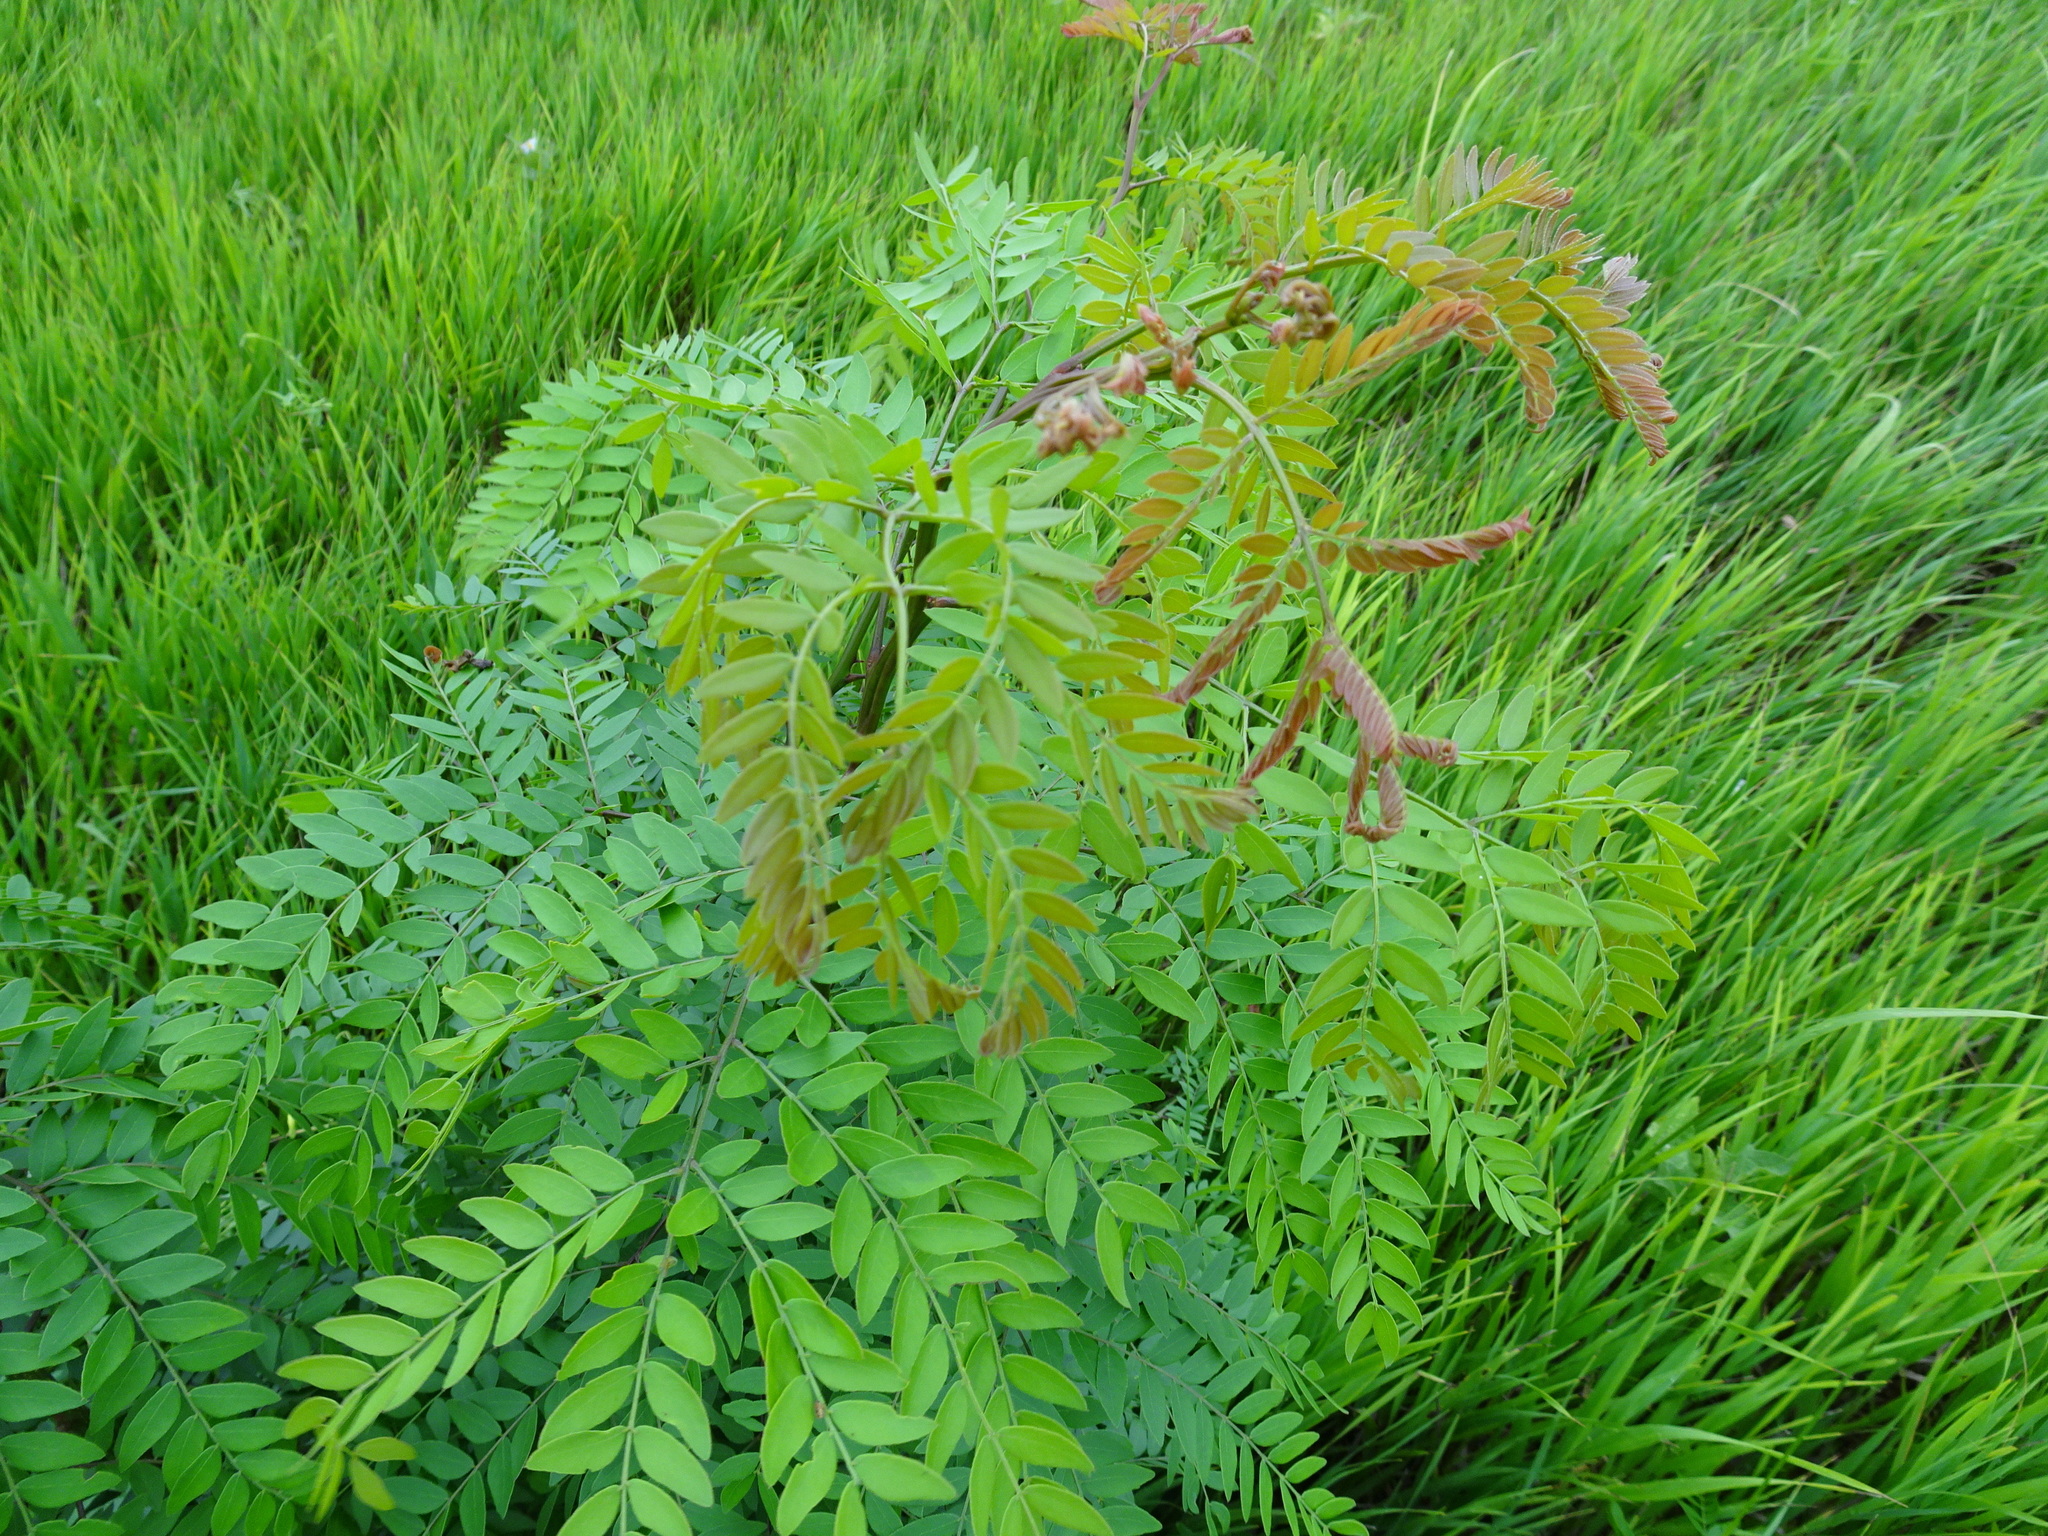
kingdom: Plantae
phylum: Tracheophyta
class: Magnoliopsida
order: Fabales
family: Fabaceae
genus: Gleditsia
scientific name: Gleditsia triacanthos
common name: Common honeylocust
